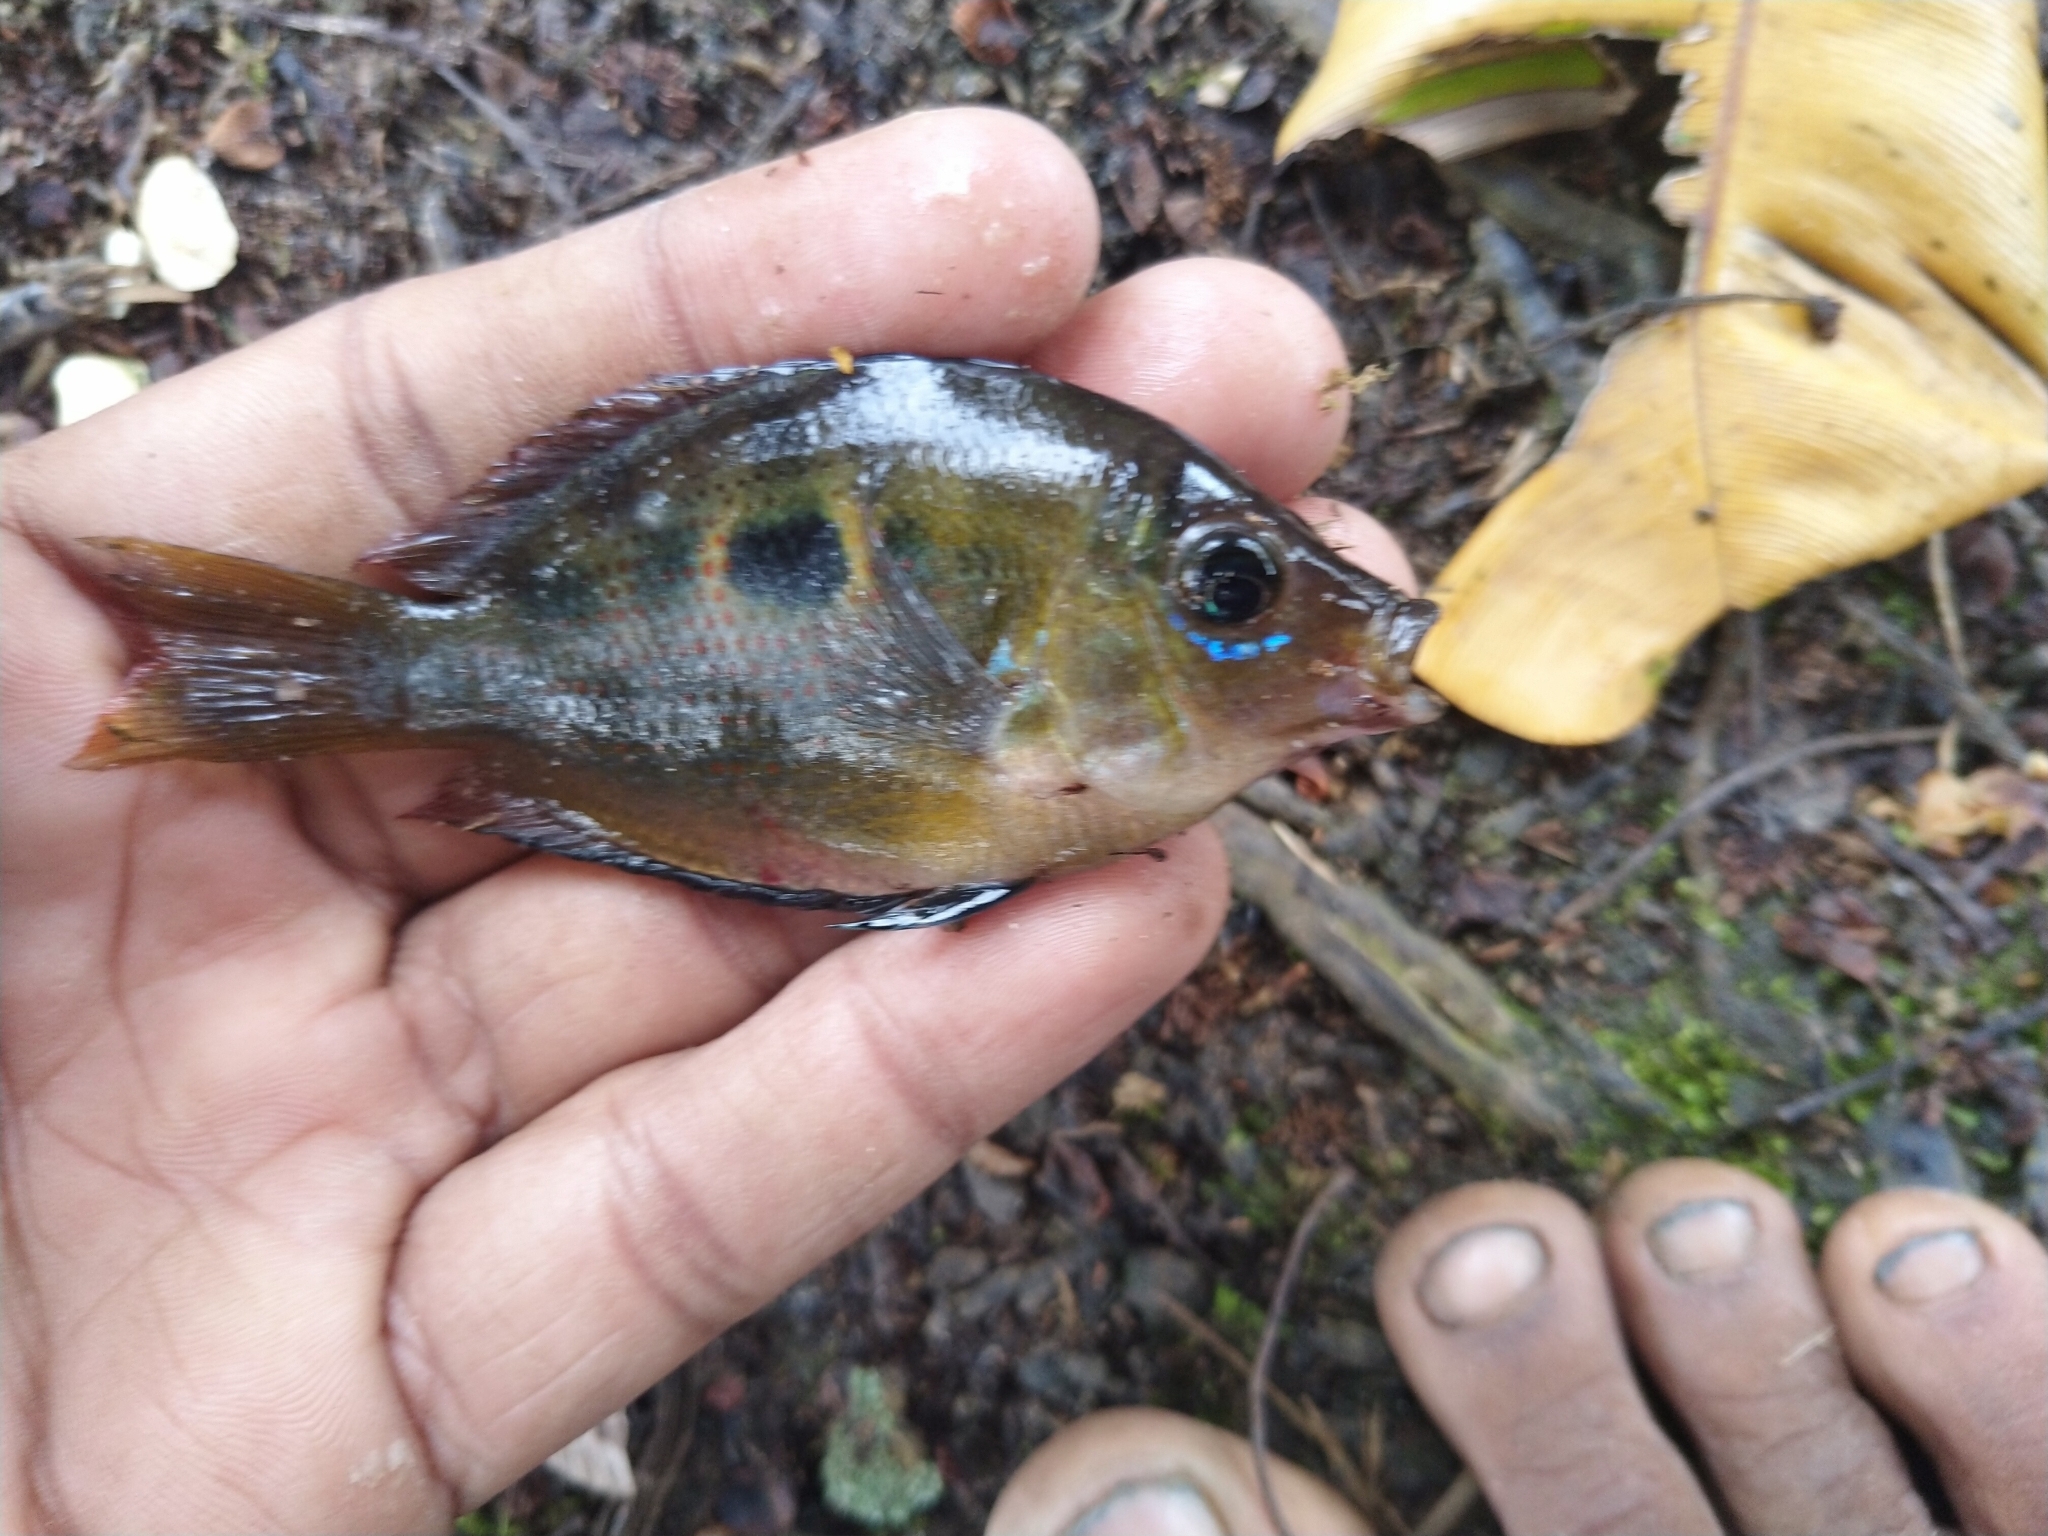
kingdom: Animalia
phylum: Chordata
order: Perciformes
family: Cichlidae
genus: Etroplus
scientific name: Etroplus maculatus
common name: Orange chromide
